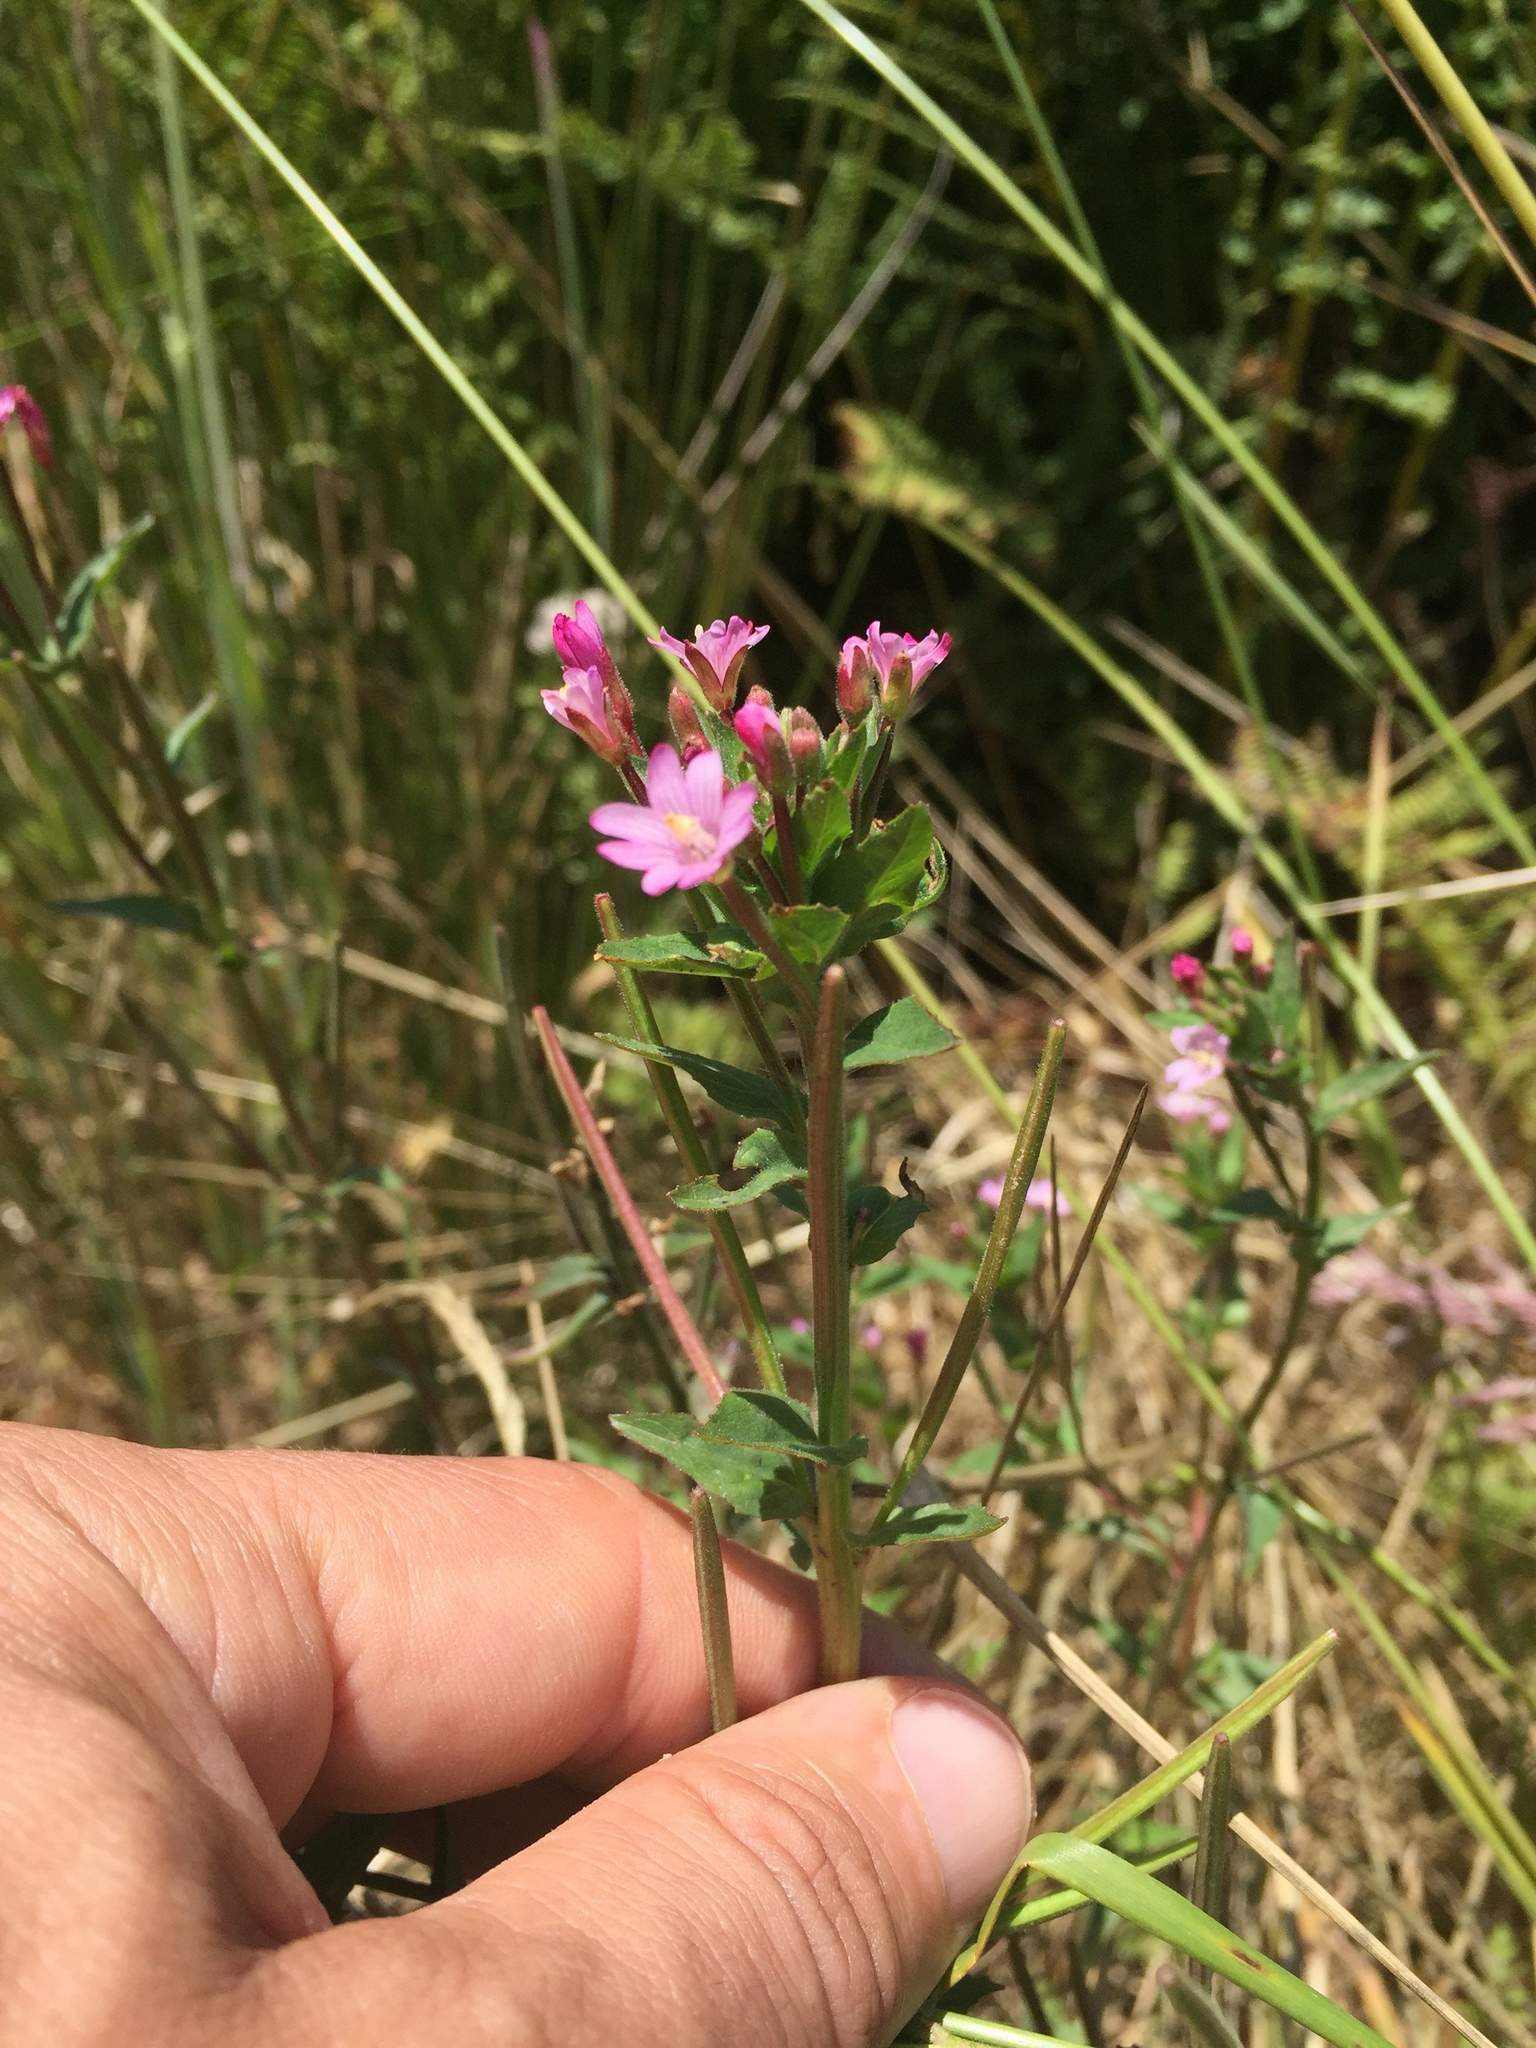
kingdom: Plantae
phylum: Tracheophyta
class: Magnoliopsida
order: Myrtales
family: Onagraceae
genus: Epilobium
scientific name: Epilobium ciliatum
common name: American willowherb
